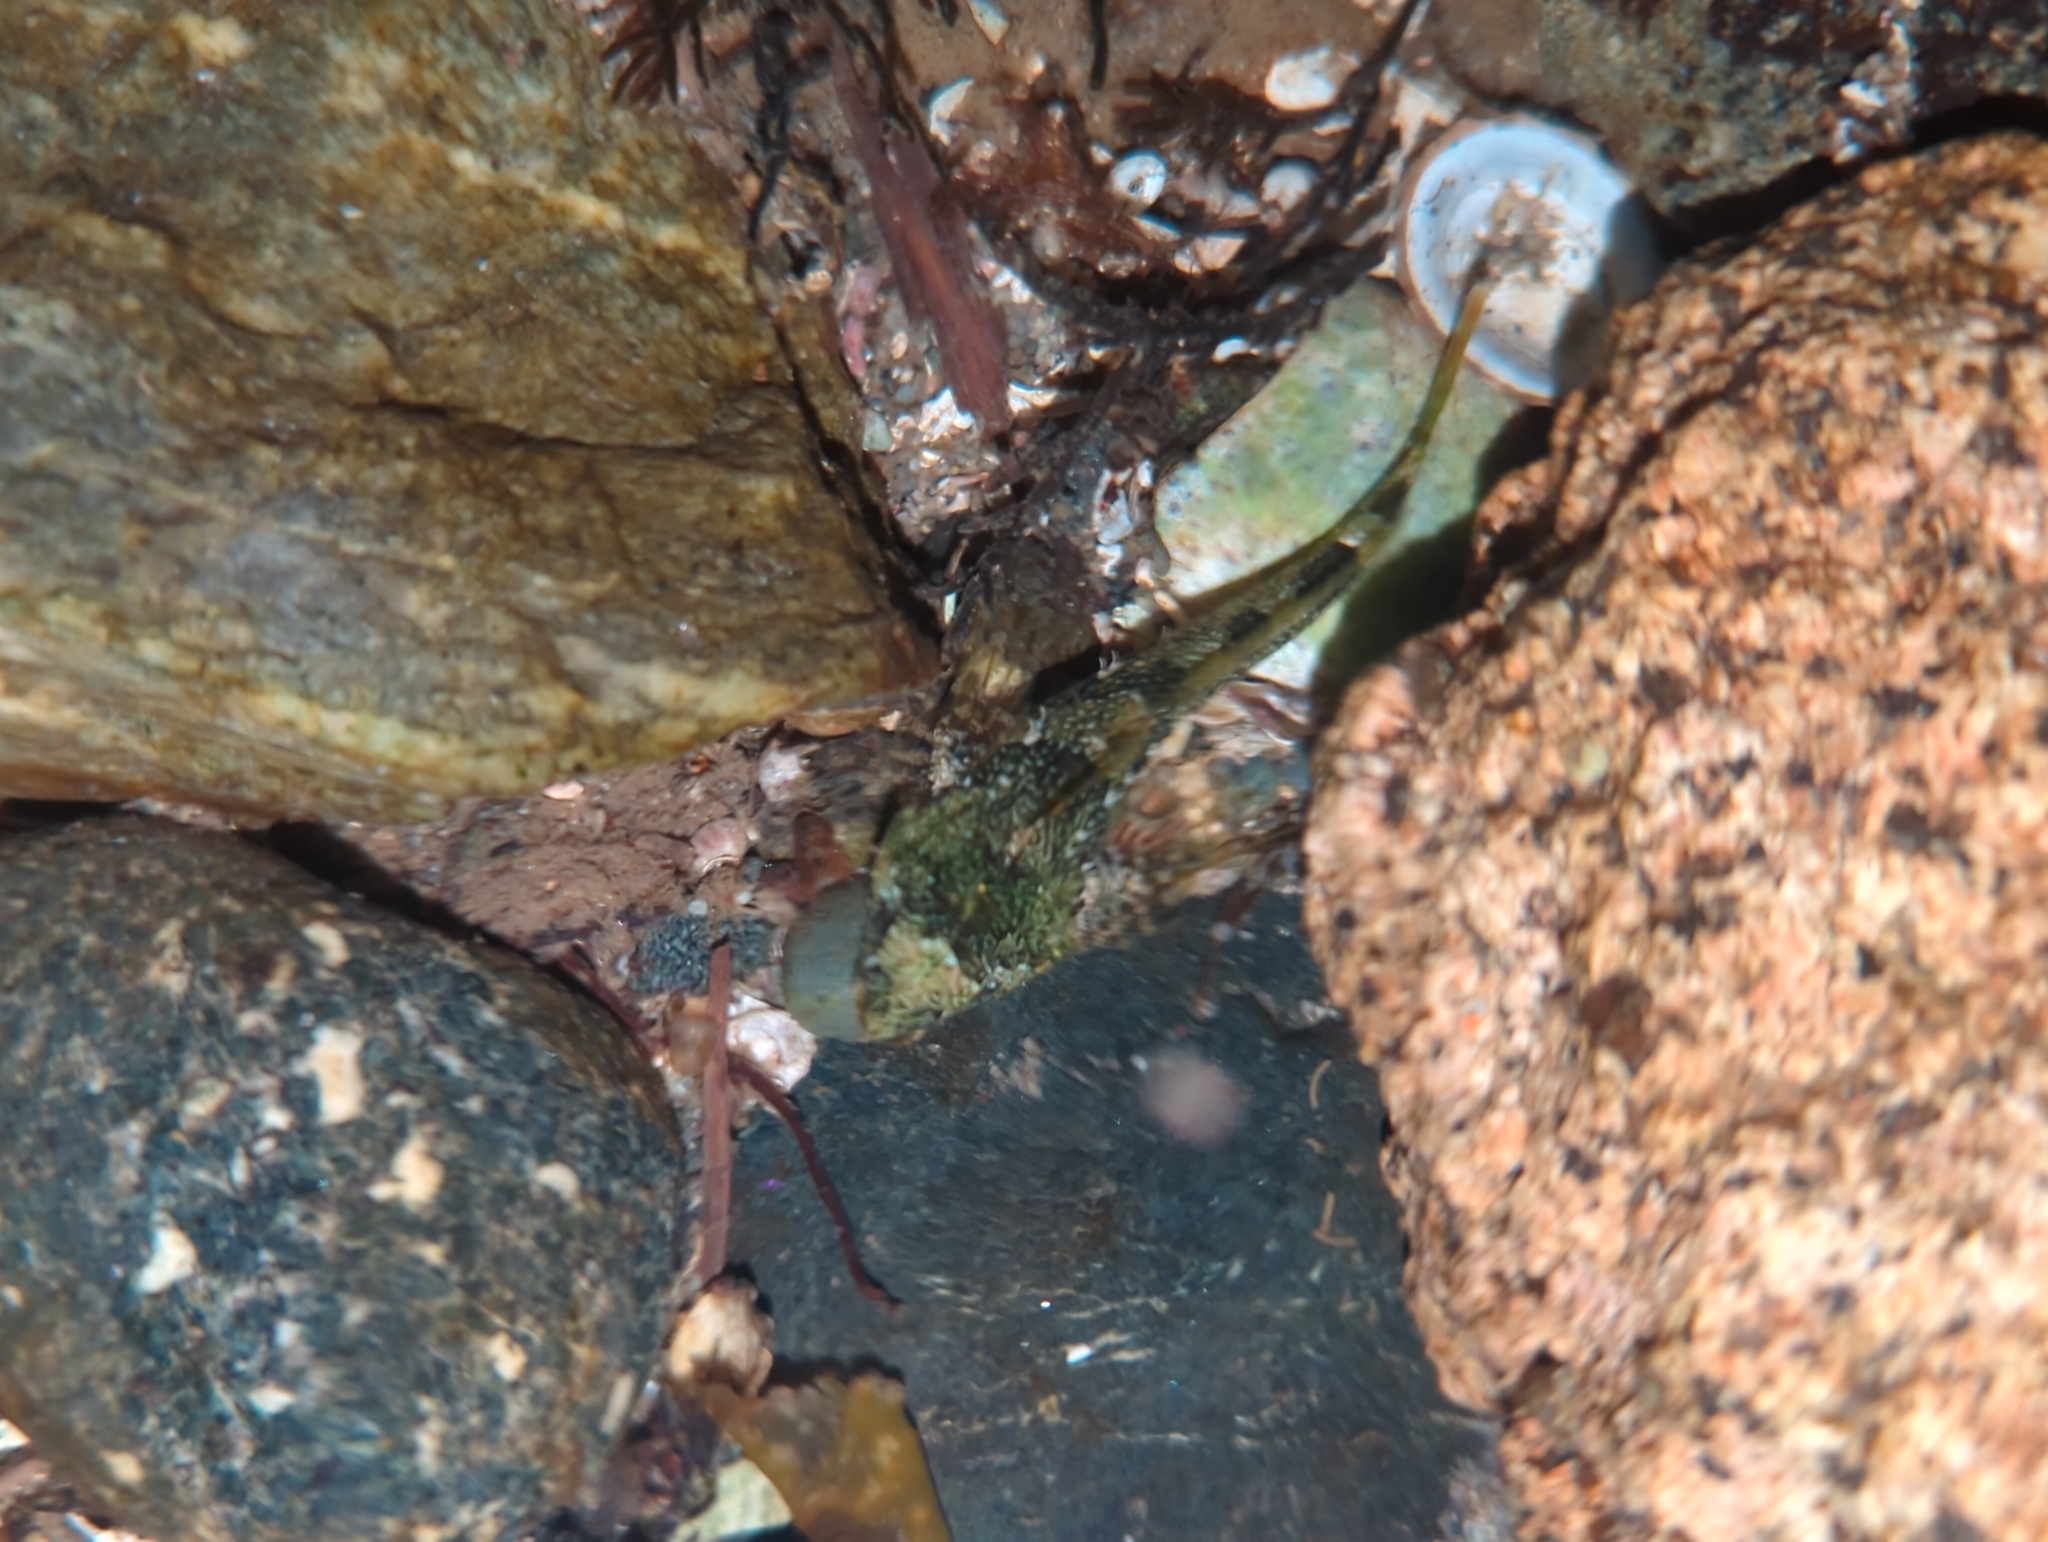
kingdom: Animalia
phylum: Chordata
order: Scorpaeniformes
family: Cottidae
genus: Oligocottus
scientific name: Oligocottus maculosus
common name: Tidepool sculpin
